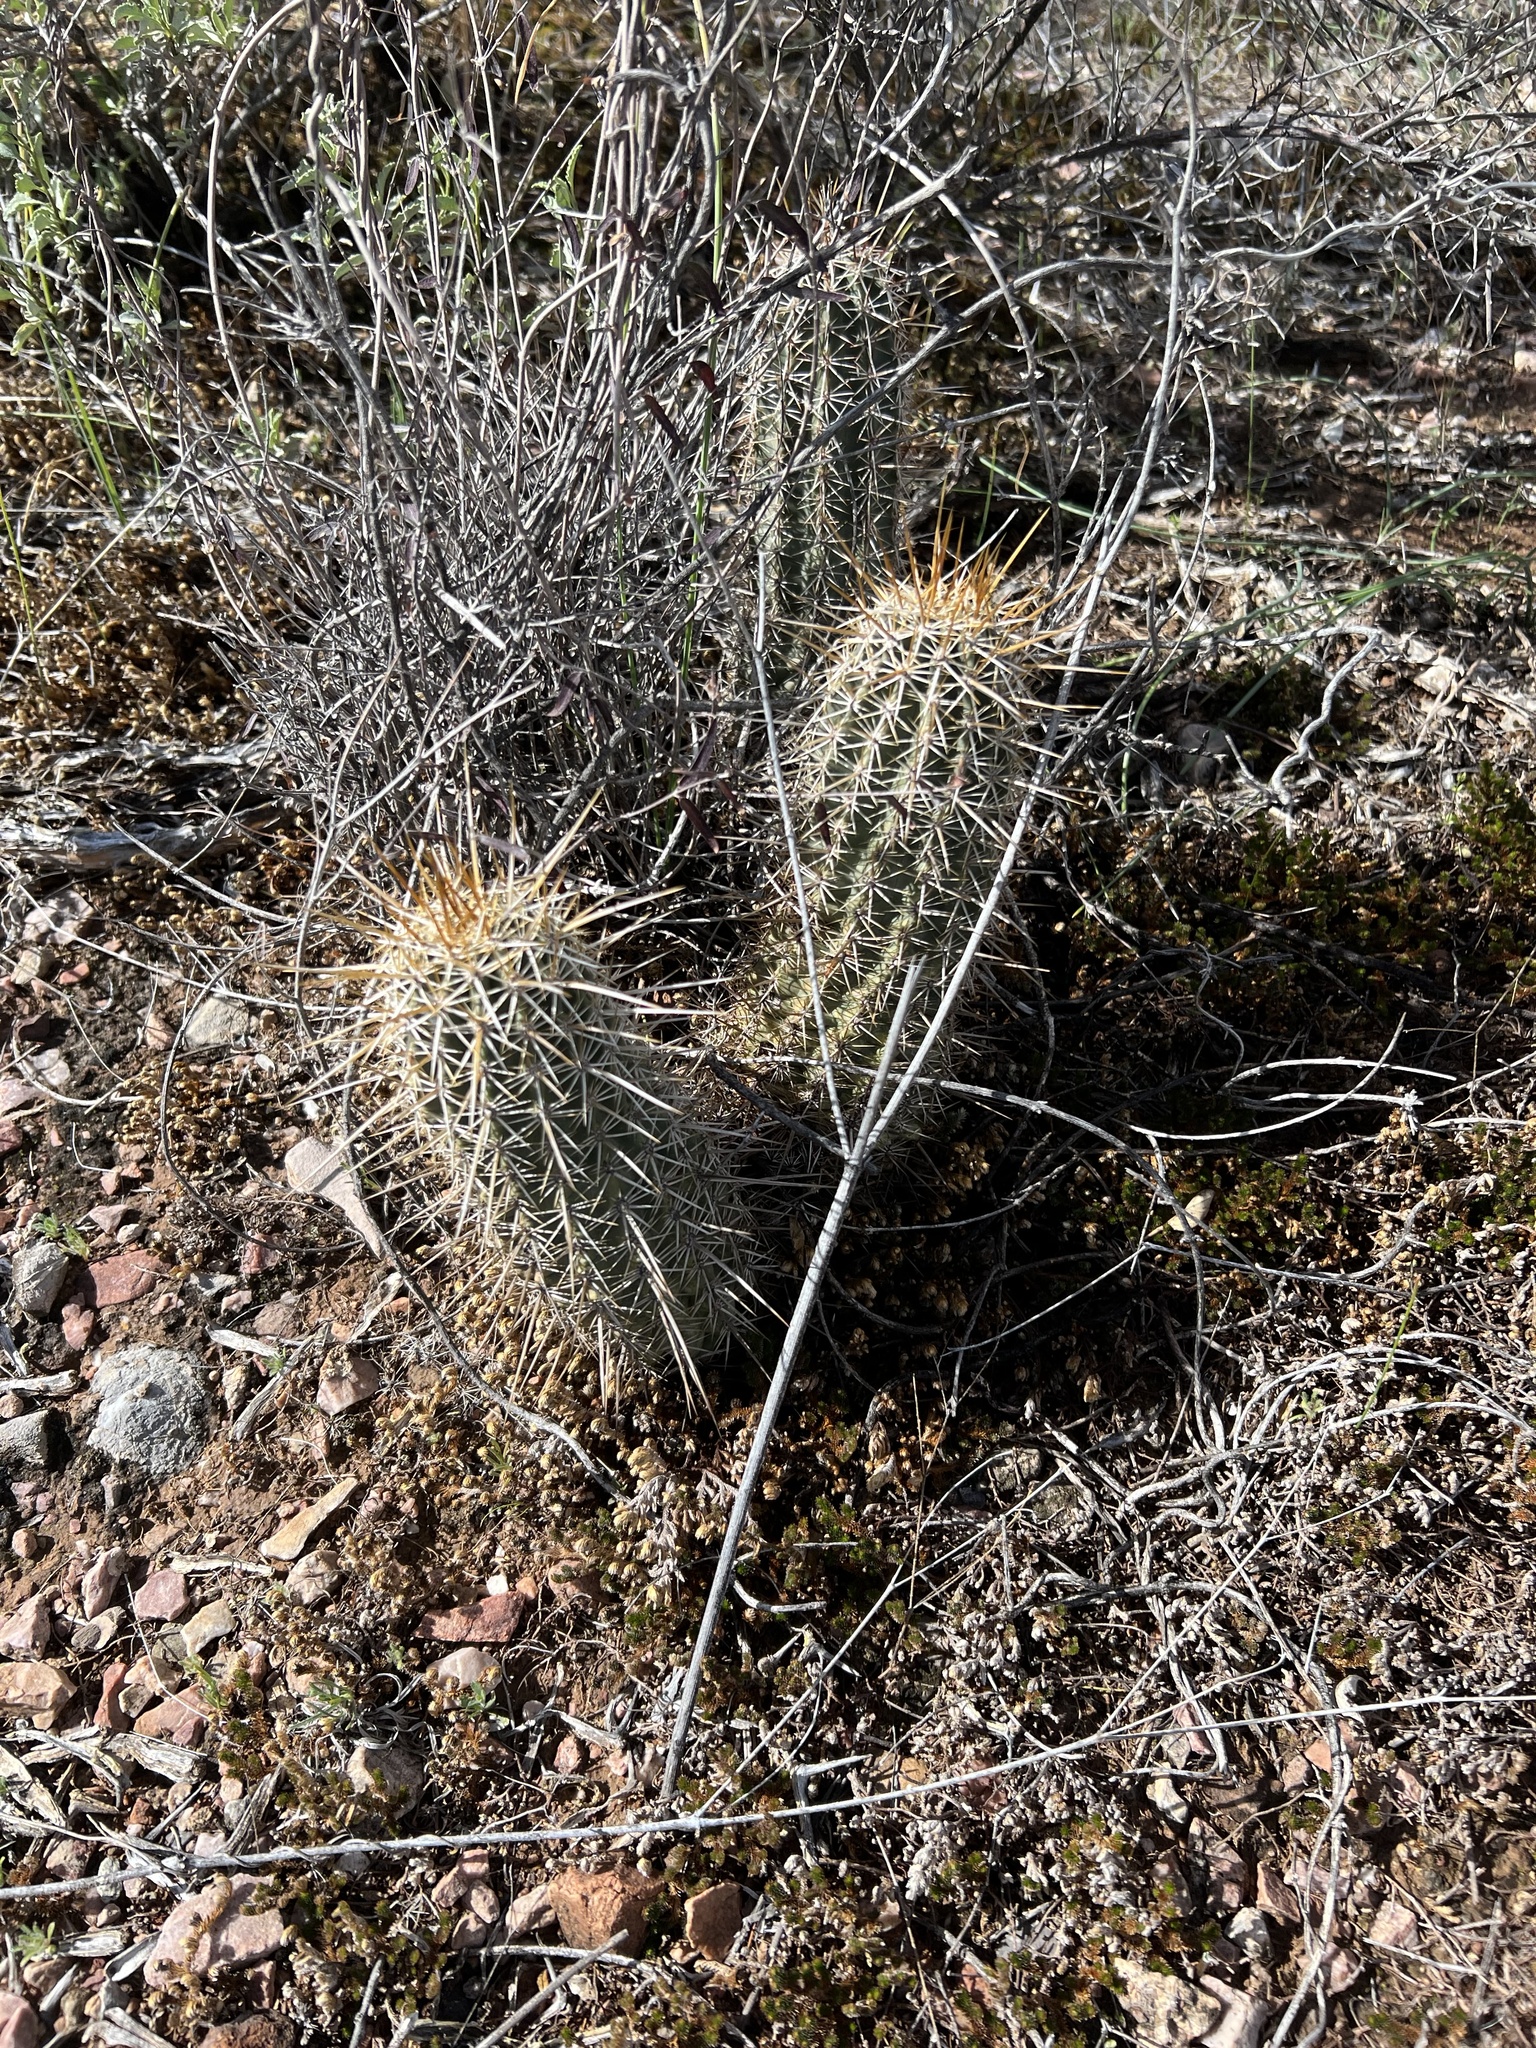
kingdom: Plantae
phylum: Tracheophyta
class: Magnoliopsida
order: Caryophyllales
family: Cactaceae
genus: Echinocereus
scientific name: Echinocereus fasciculatus
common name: Bundle hedgehog
